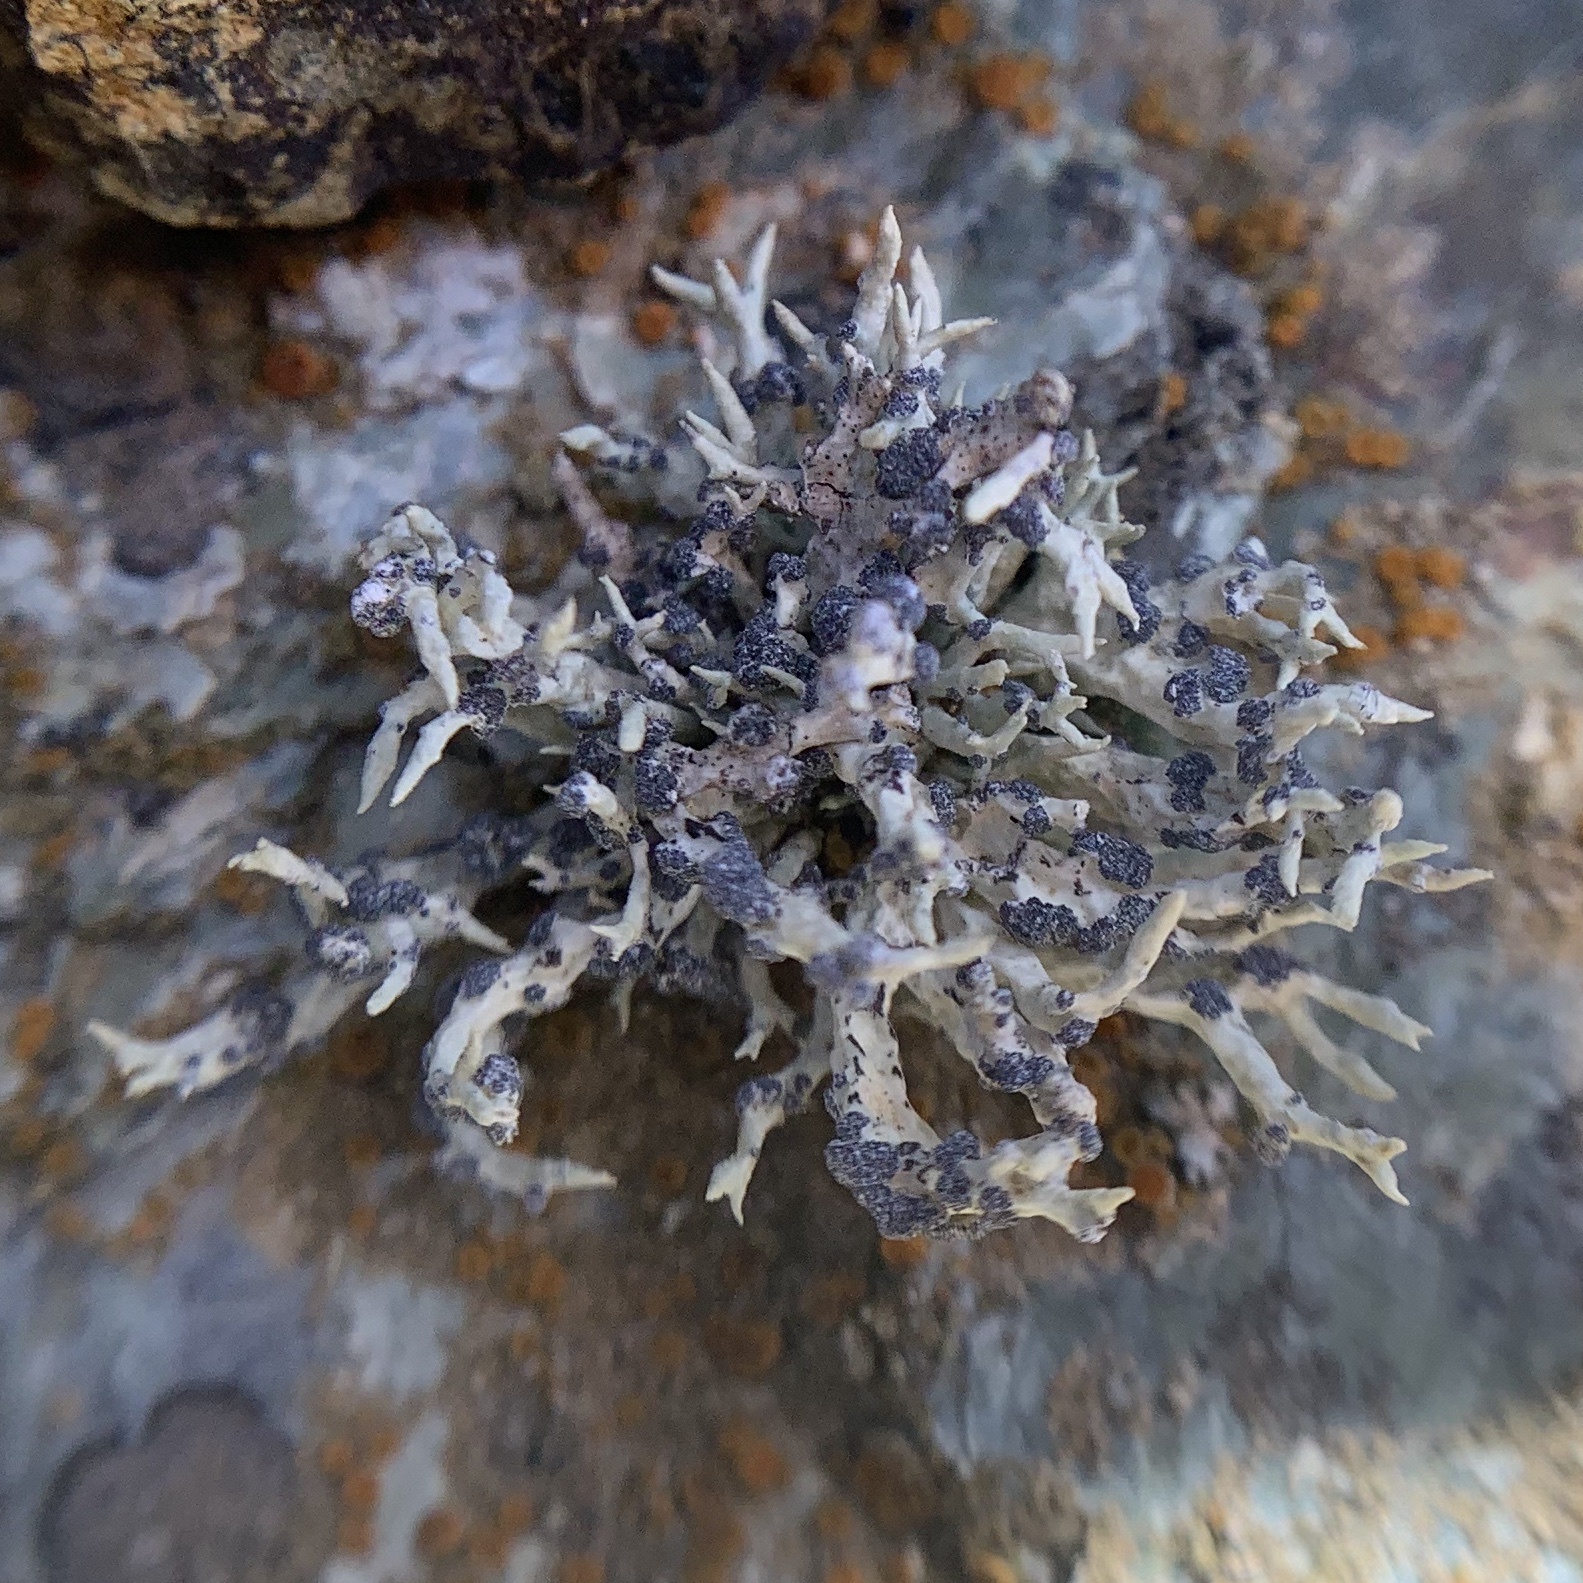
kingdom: Fungi
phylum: Ascomycota
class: Lecanoromycetes
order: Lecanorales
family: Ramalinaceae
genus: Niebla
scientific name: Niebla cephalota
